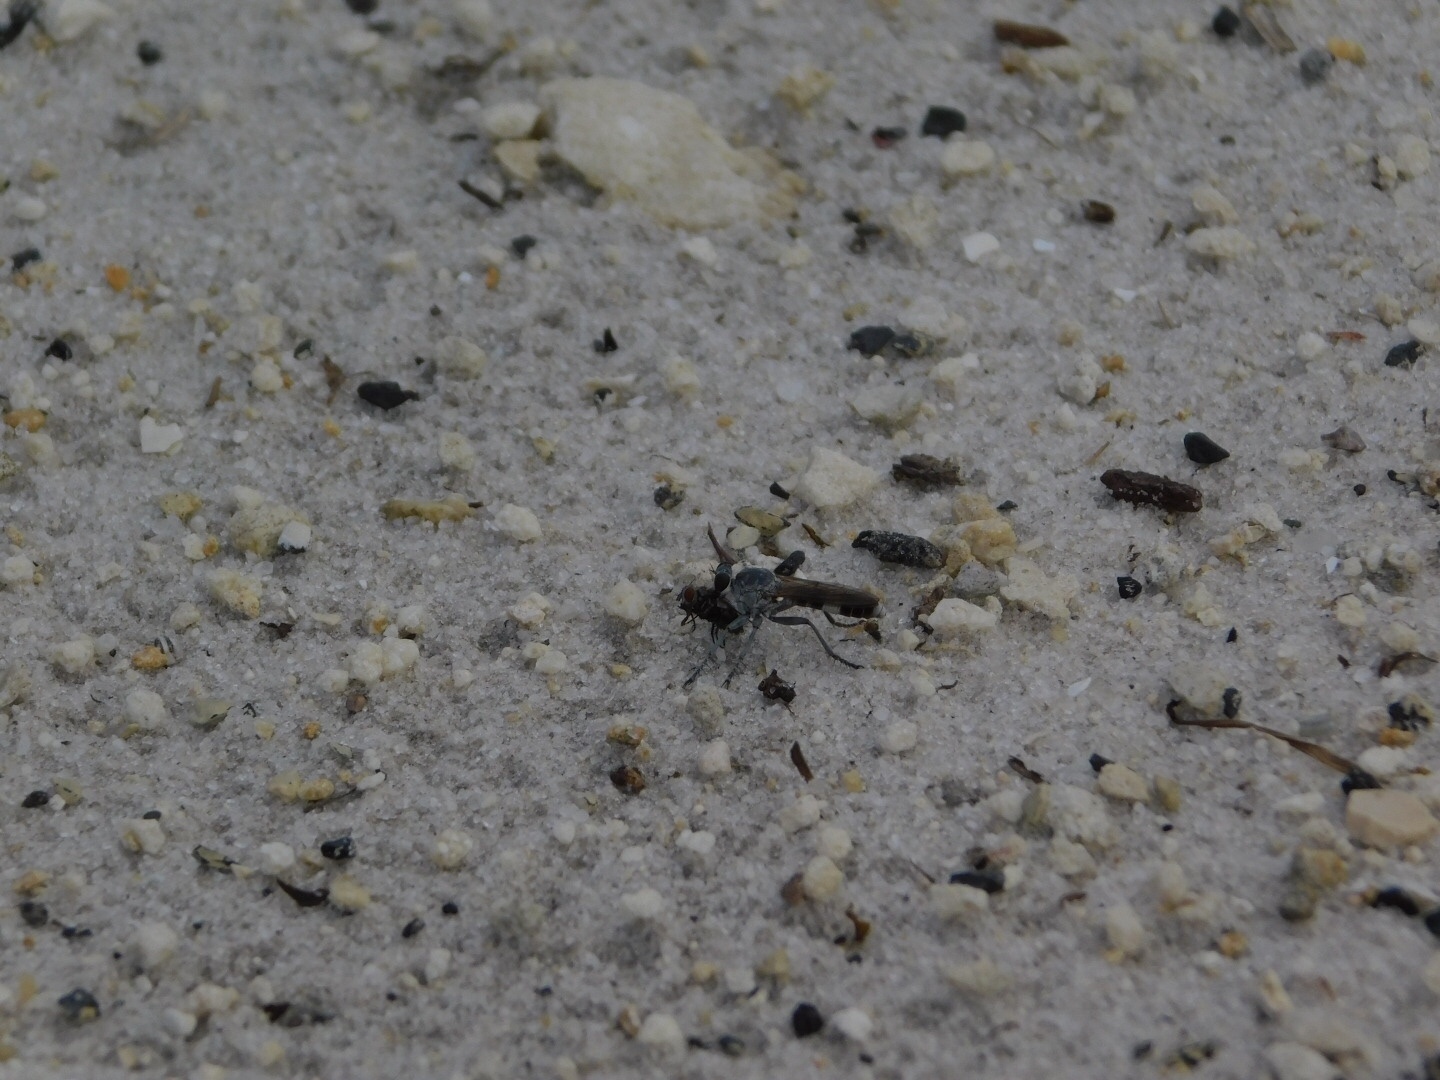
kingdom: Animalia
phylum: Arthropoda
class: Insecta
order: Diptera
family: Asilidae
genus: Stichopogon
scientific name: Stichopogon trifasciatus
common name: Three-banded robber fly
